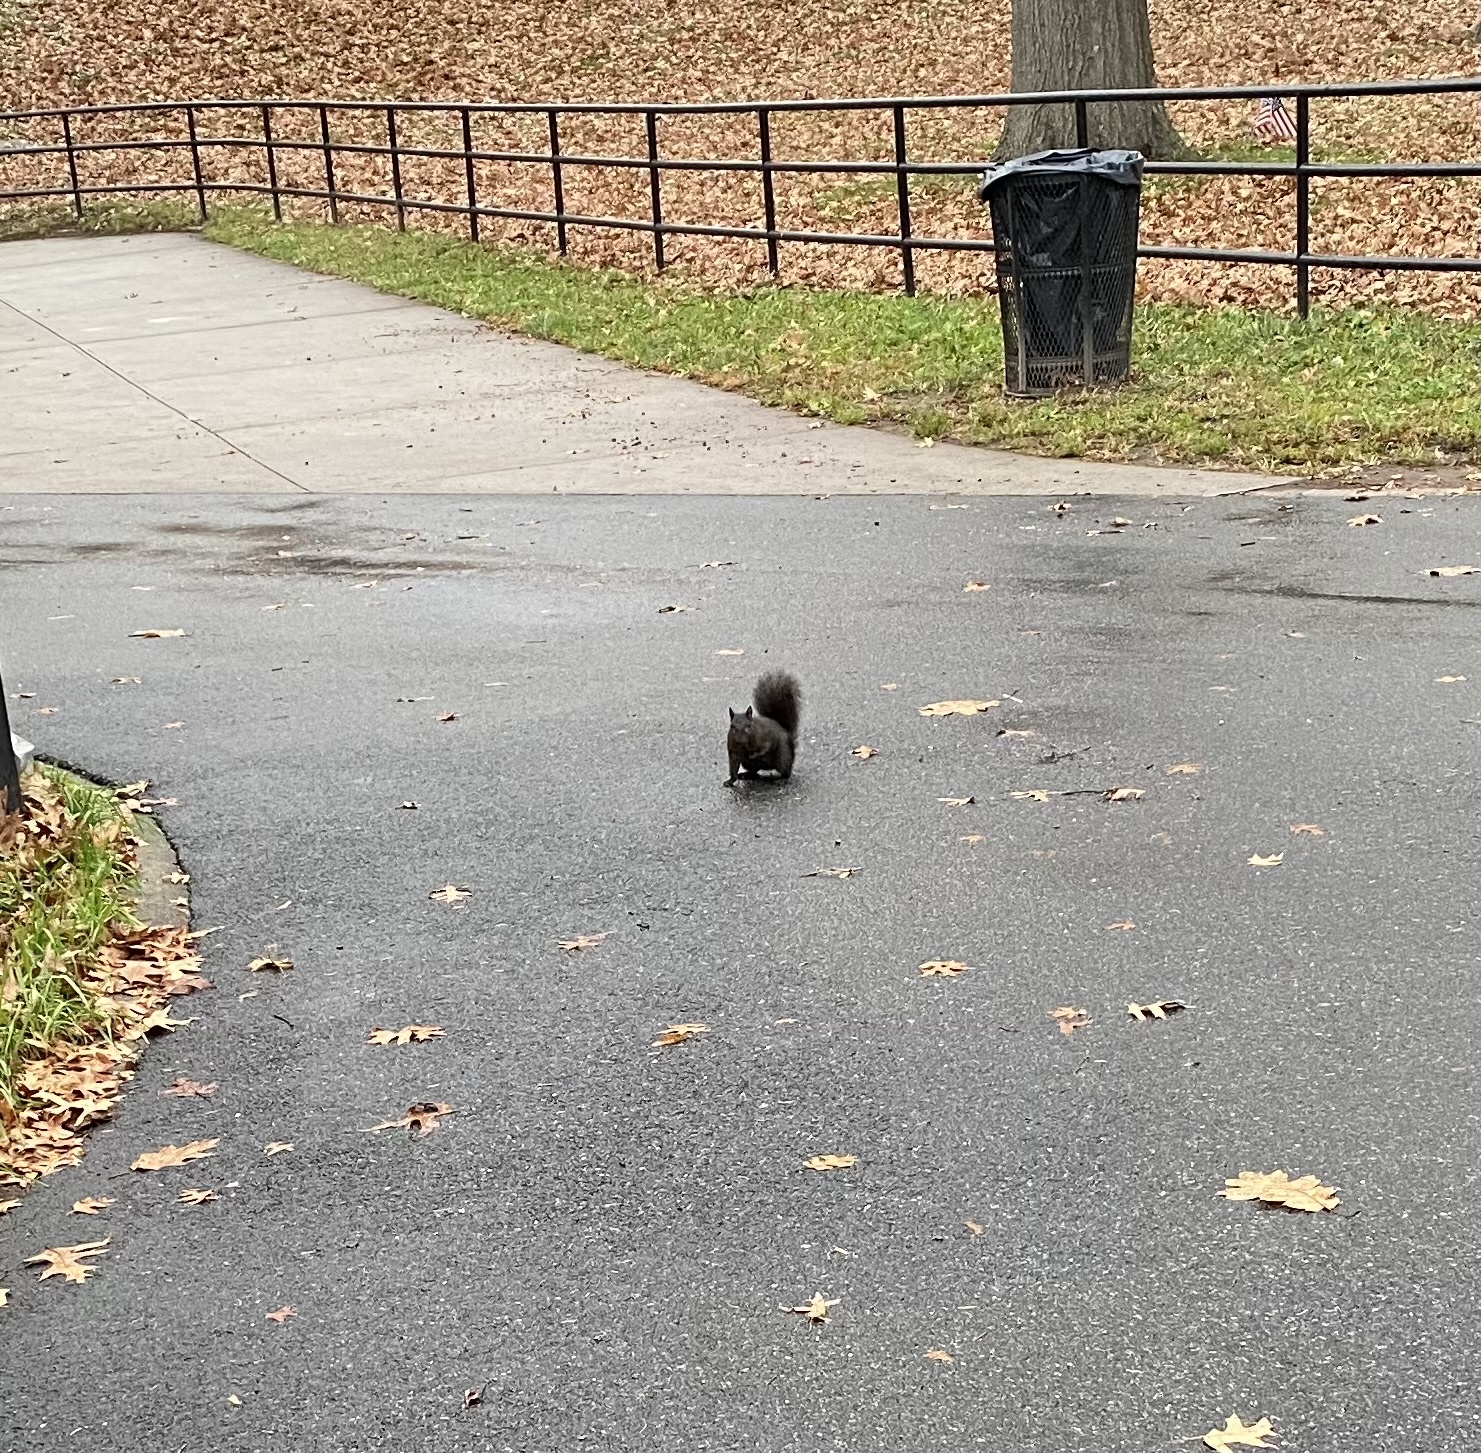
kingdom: Animalia
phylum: Chordata
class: Mammalia
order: Rodentia
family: Sciuridae
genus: Sciurus
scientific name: Sciurus carolinensis
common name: Eastern gray squirrel
